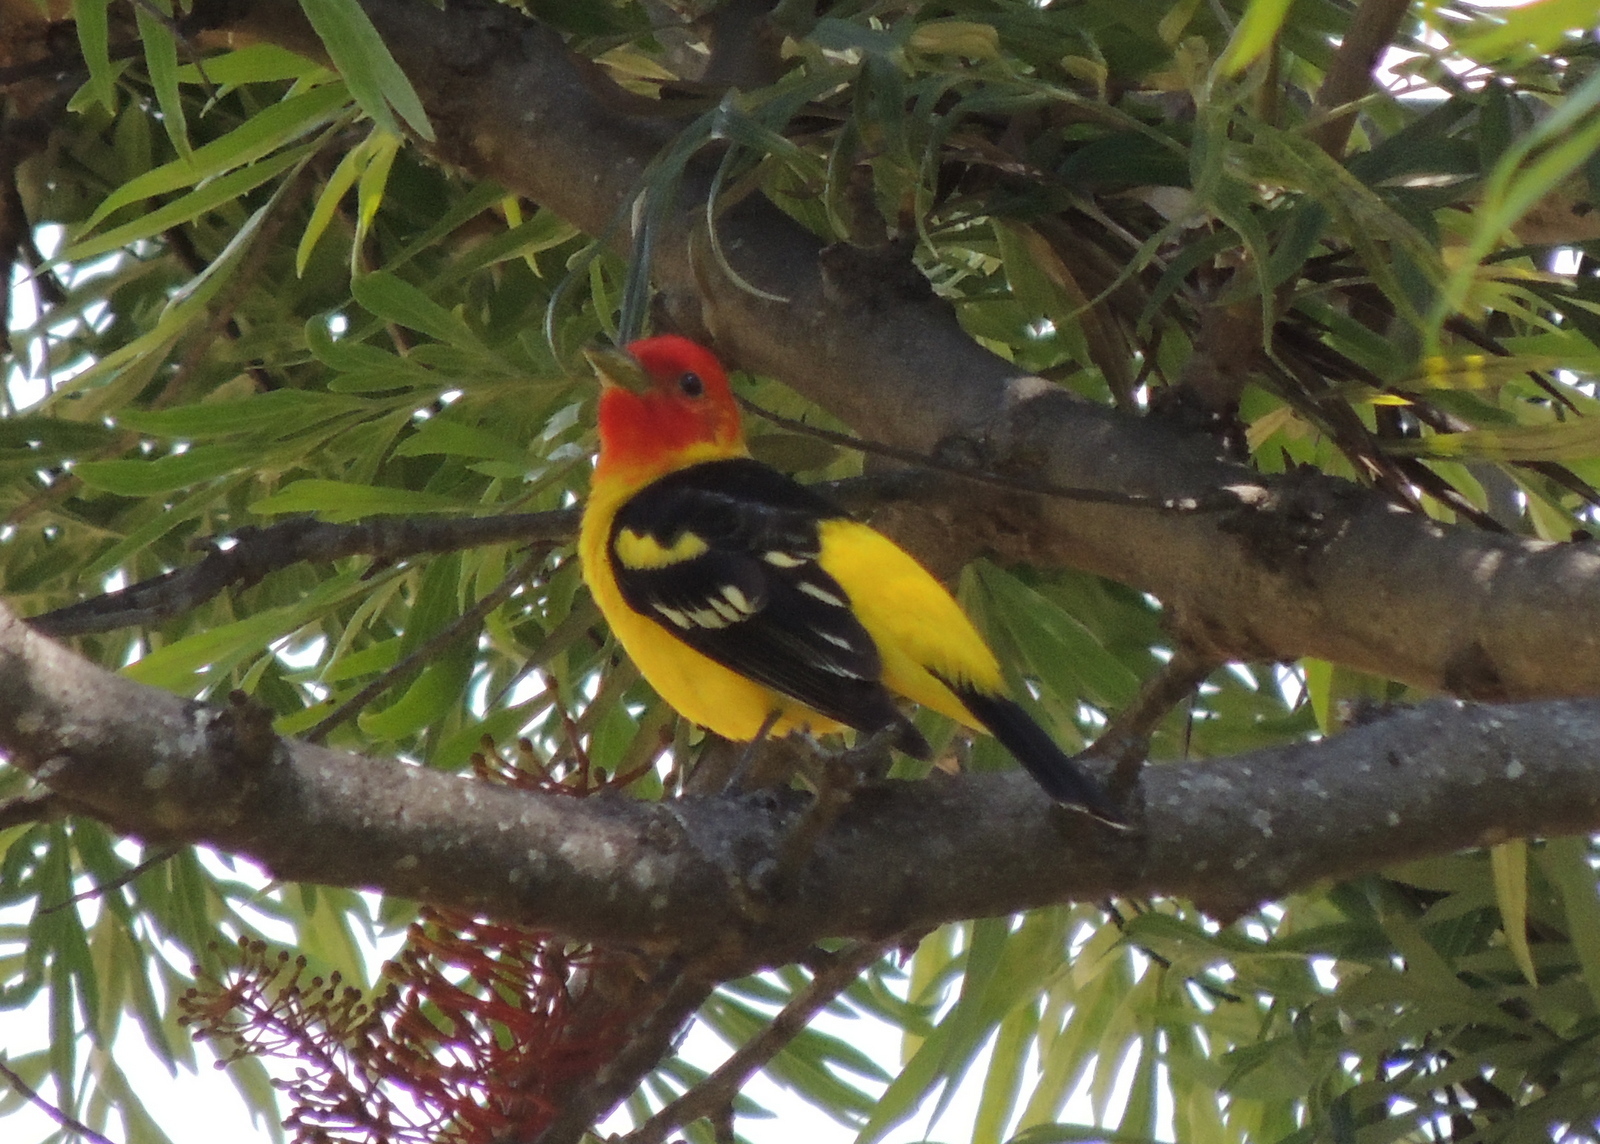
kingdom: Animalia
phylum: Chordata
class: Aves
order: Passeriformes
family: Cardinalidae
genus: Piranga
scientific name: Piranga ludoviciana
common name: Western tanager
